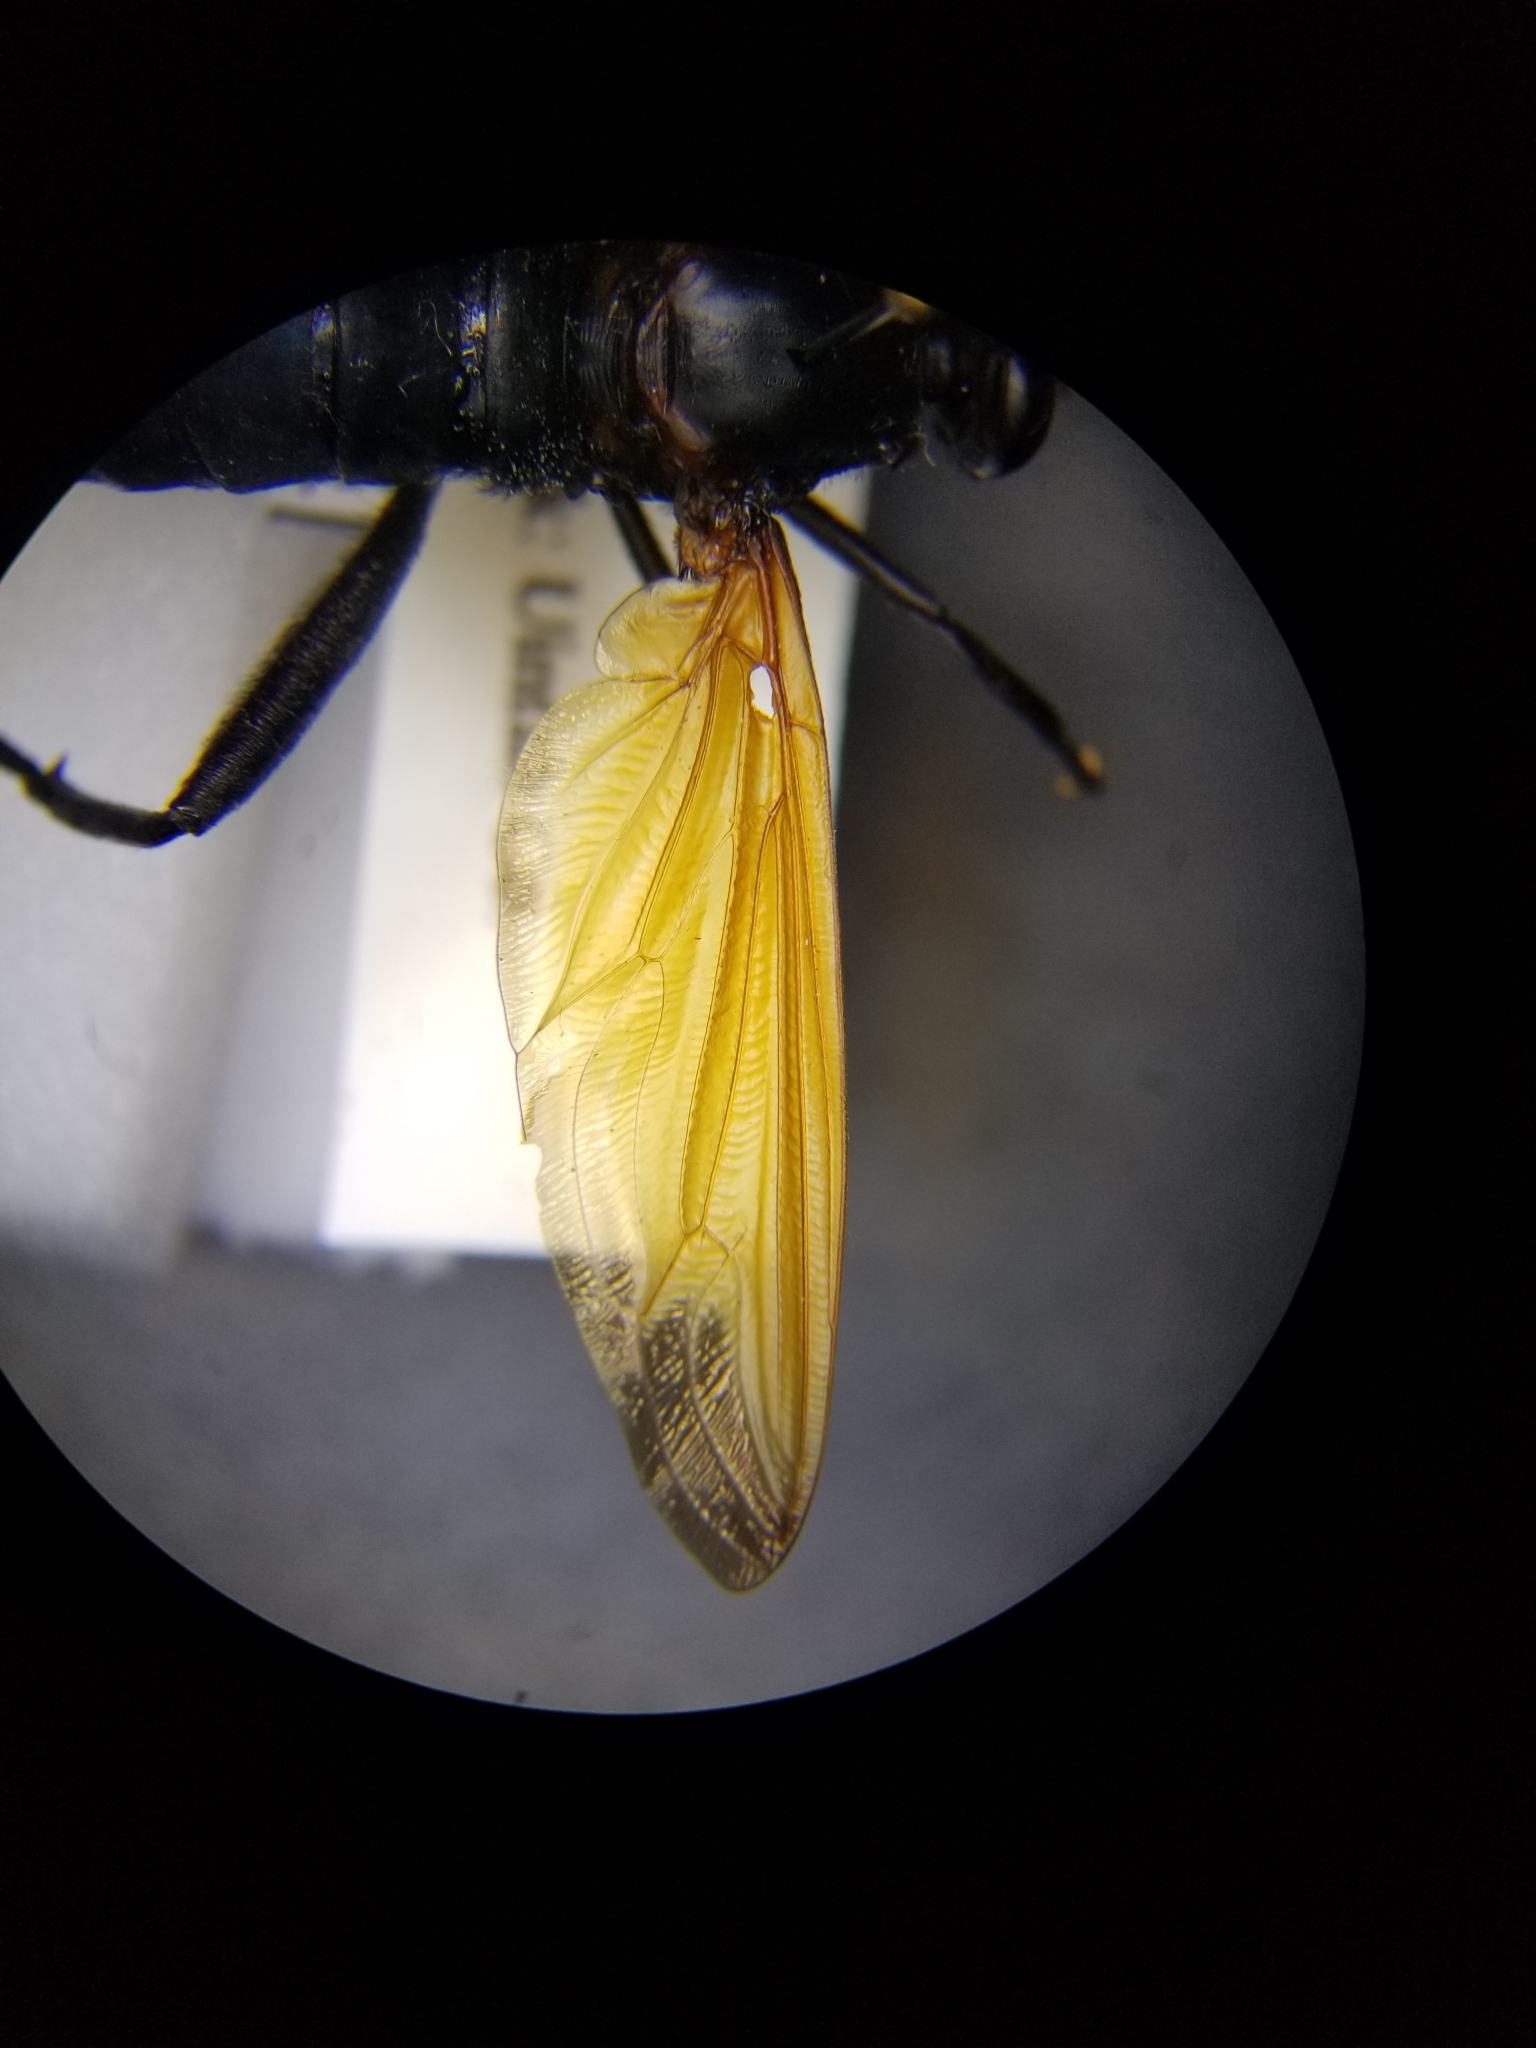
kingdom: Animalia
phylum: Arthropoda
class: Insecta
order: Diptera
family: Mydidae
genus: Mydas
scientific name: Mydas xanthopterus
